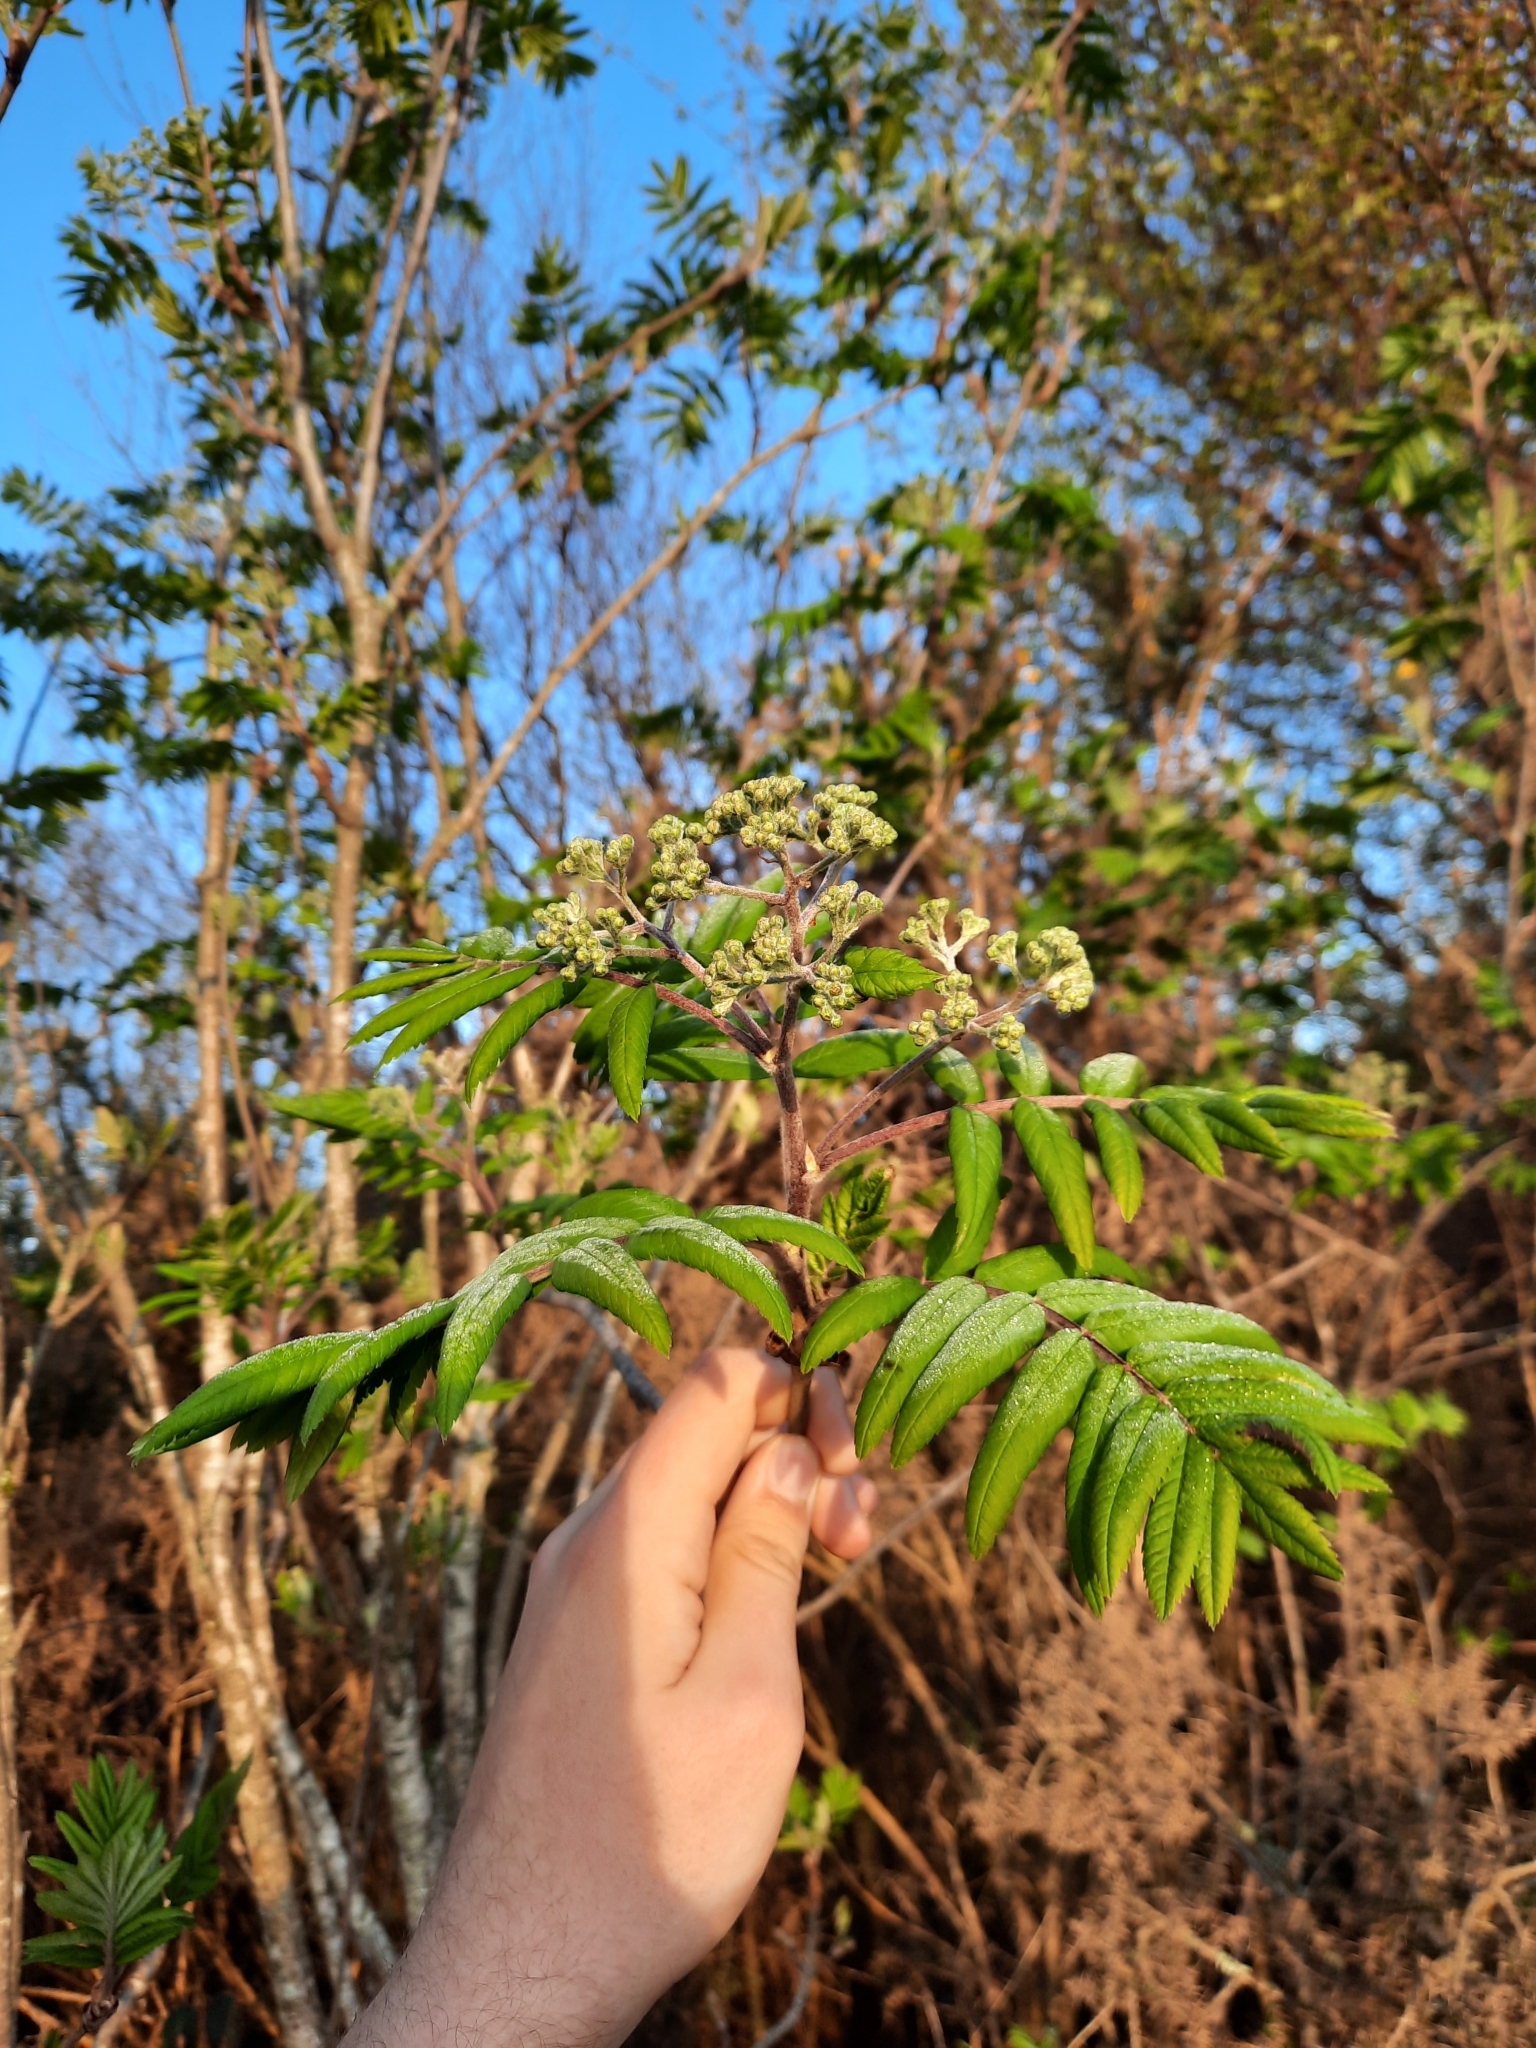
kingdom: Plantae
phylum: Tracheophyta
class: Magnoliopsida
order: Rosales
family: Rosaceae
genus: Sorbus
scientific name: Sorbus aucuparia
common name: Rowan
